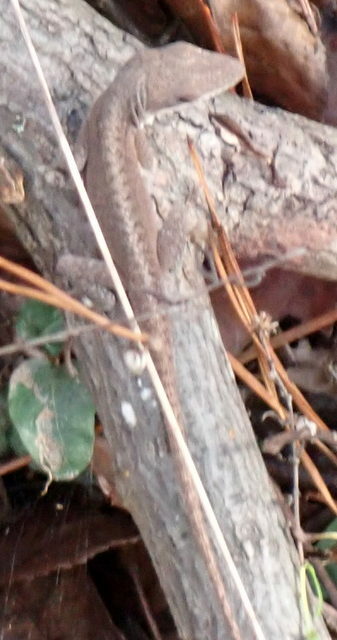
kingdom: Animalia
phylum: Chordata
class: Squamata
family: Dactyloidae
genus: Anolis
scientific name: Anolis carolinensis
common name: Green anole
